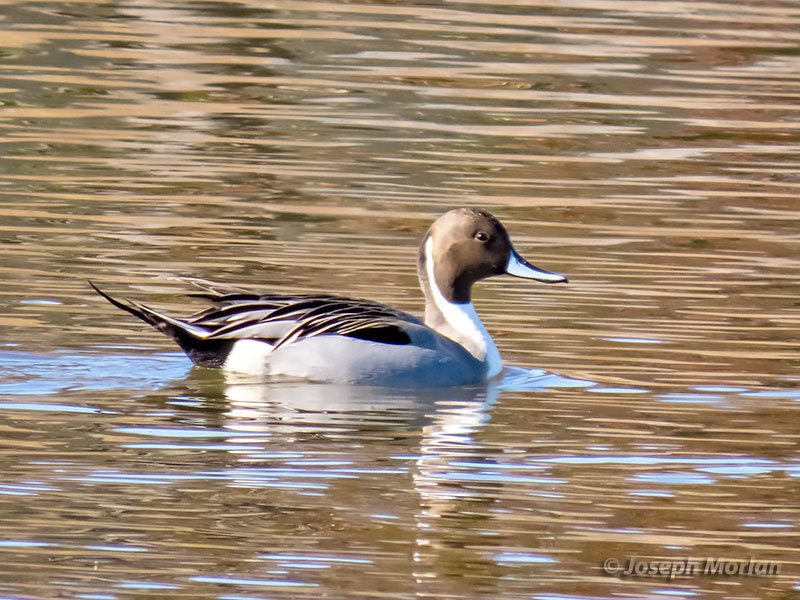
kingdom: Animalia
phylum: Chordata
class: Aves
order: Anseriformes
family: Anatidae
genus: Anas
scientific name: Anas acuta
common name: Northern pintail
